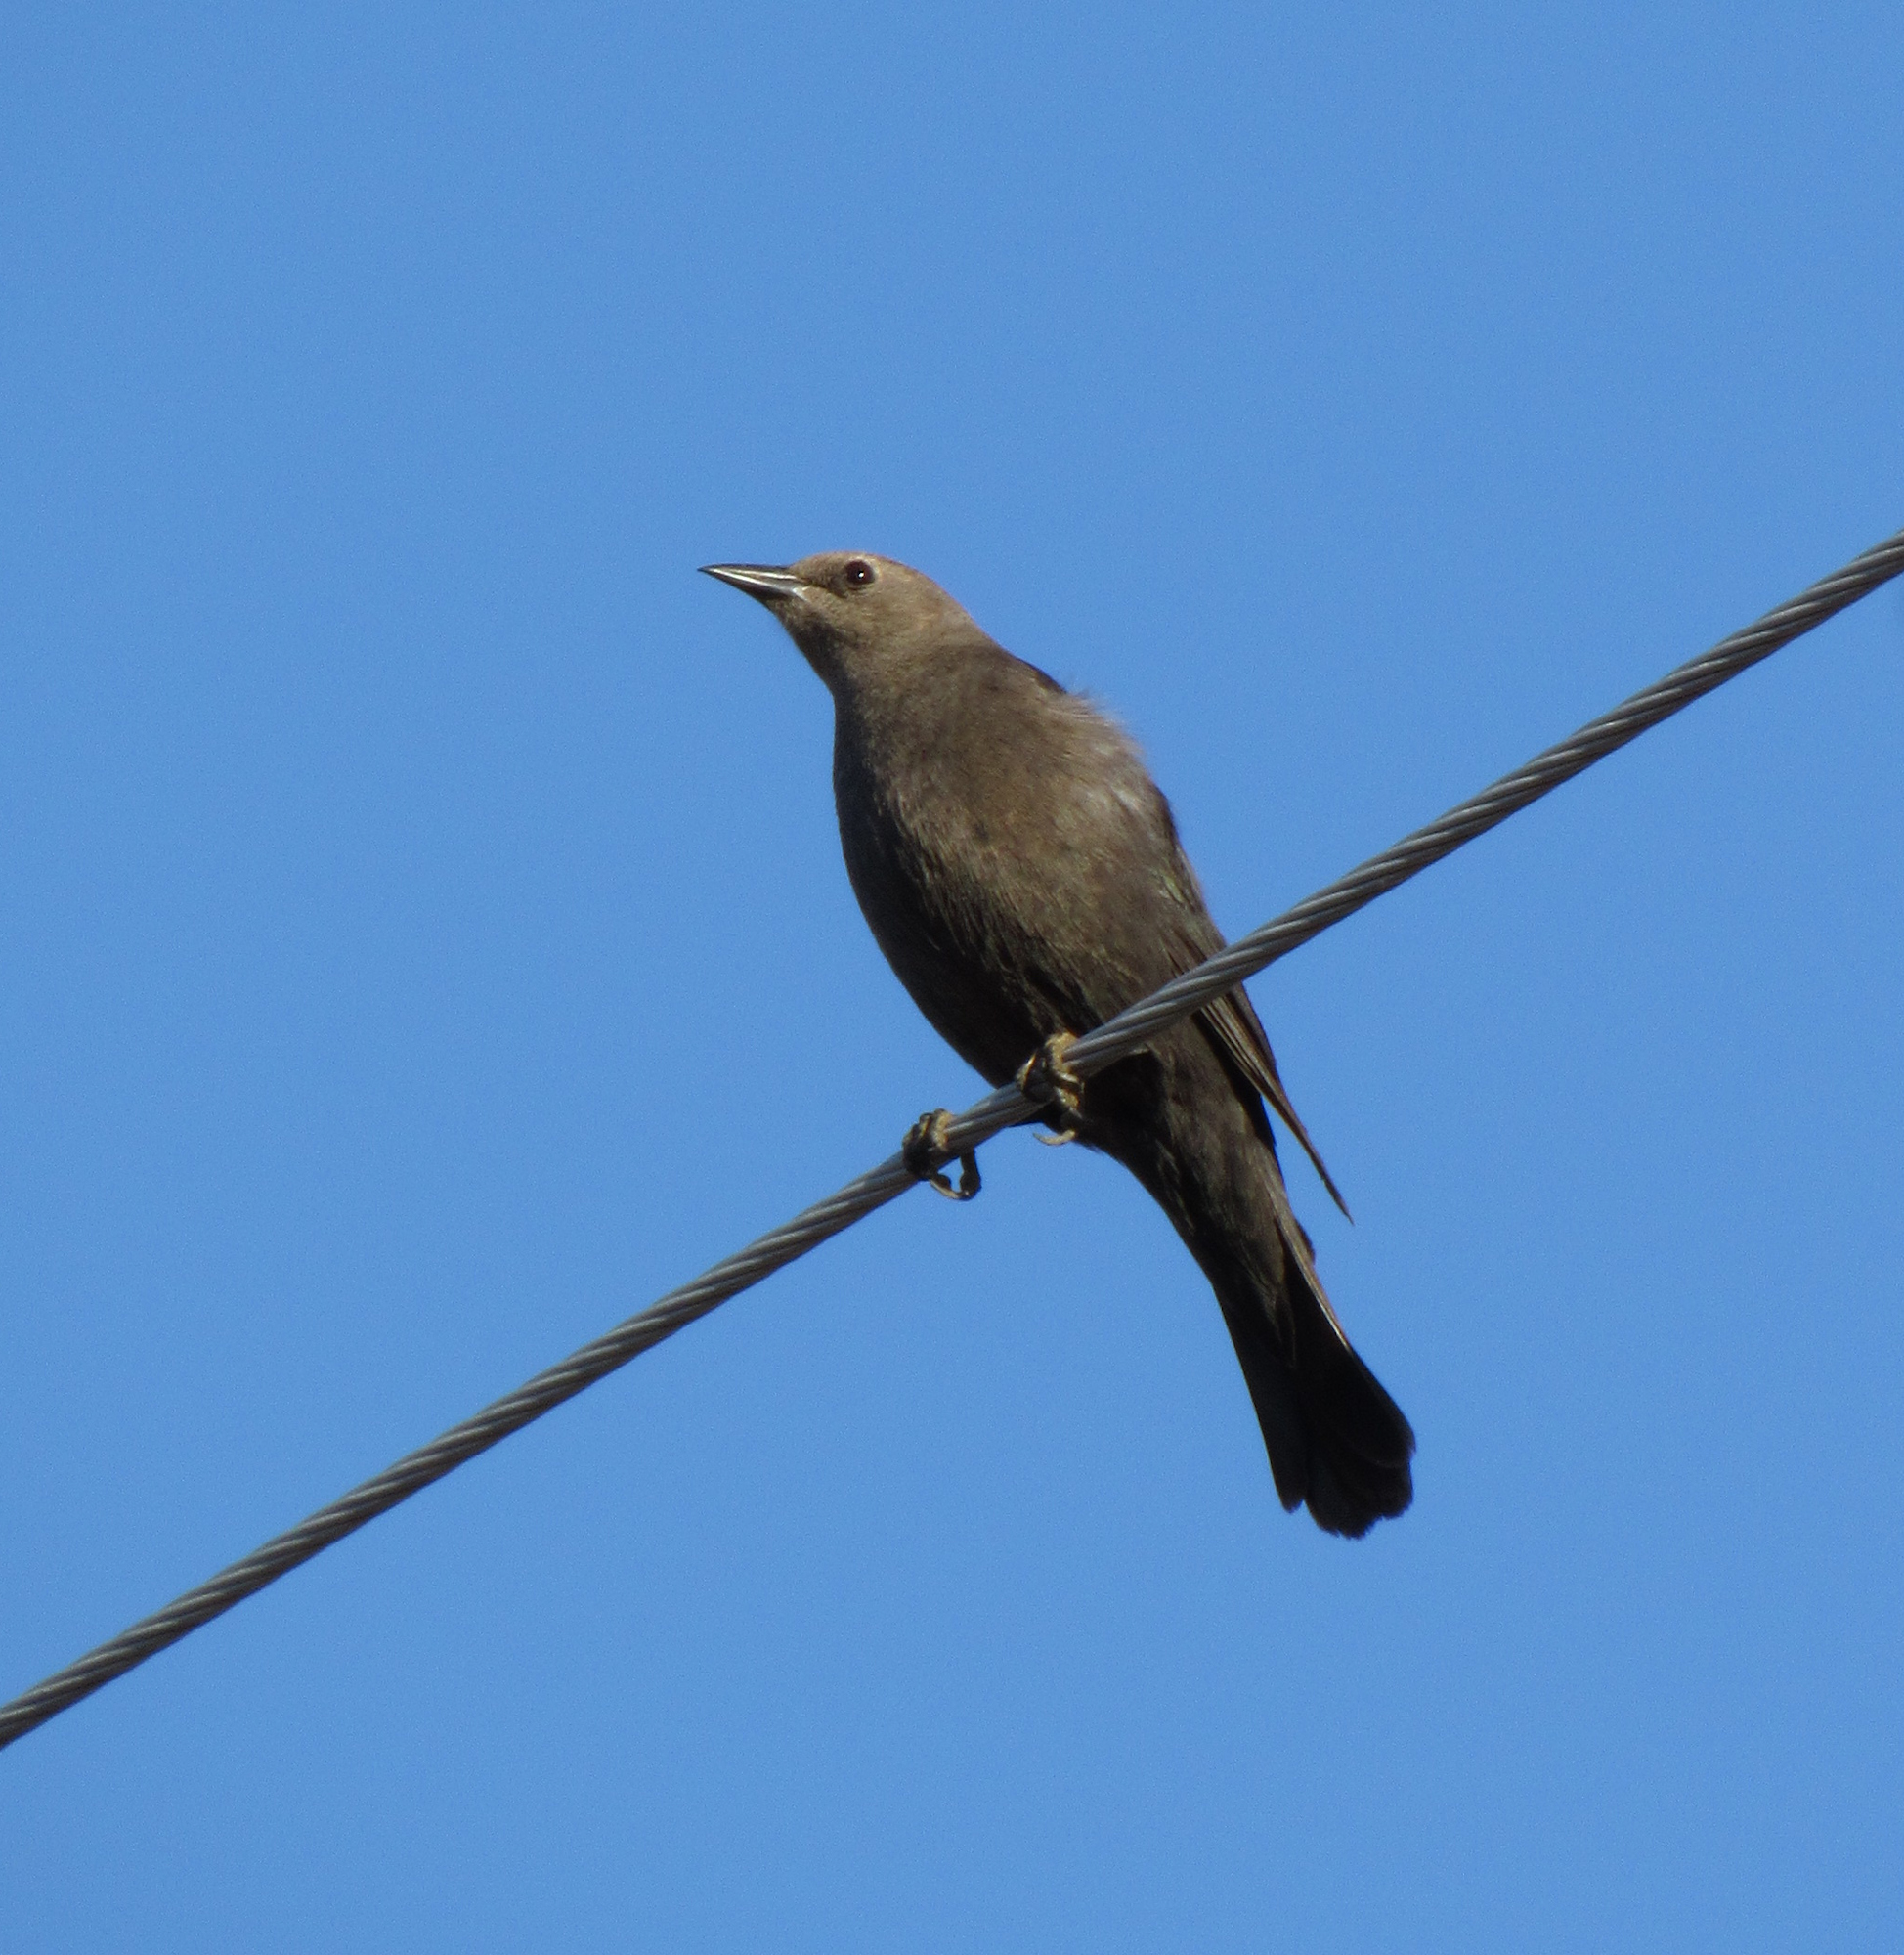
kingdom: Animalia
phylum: Chordata
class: Aves
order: Passeriformes
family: Icteridae
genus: Euphagus
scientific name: Euphagus cyanocephalus
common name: Brewer's blackbird
